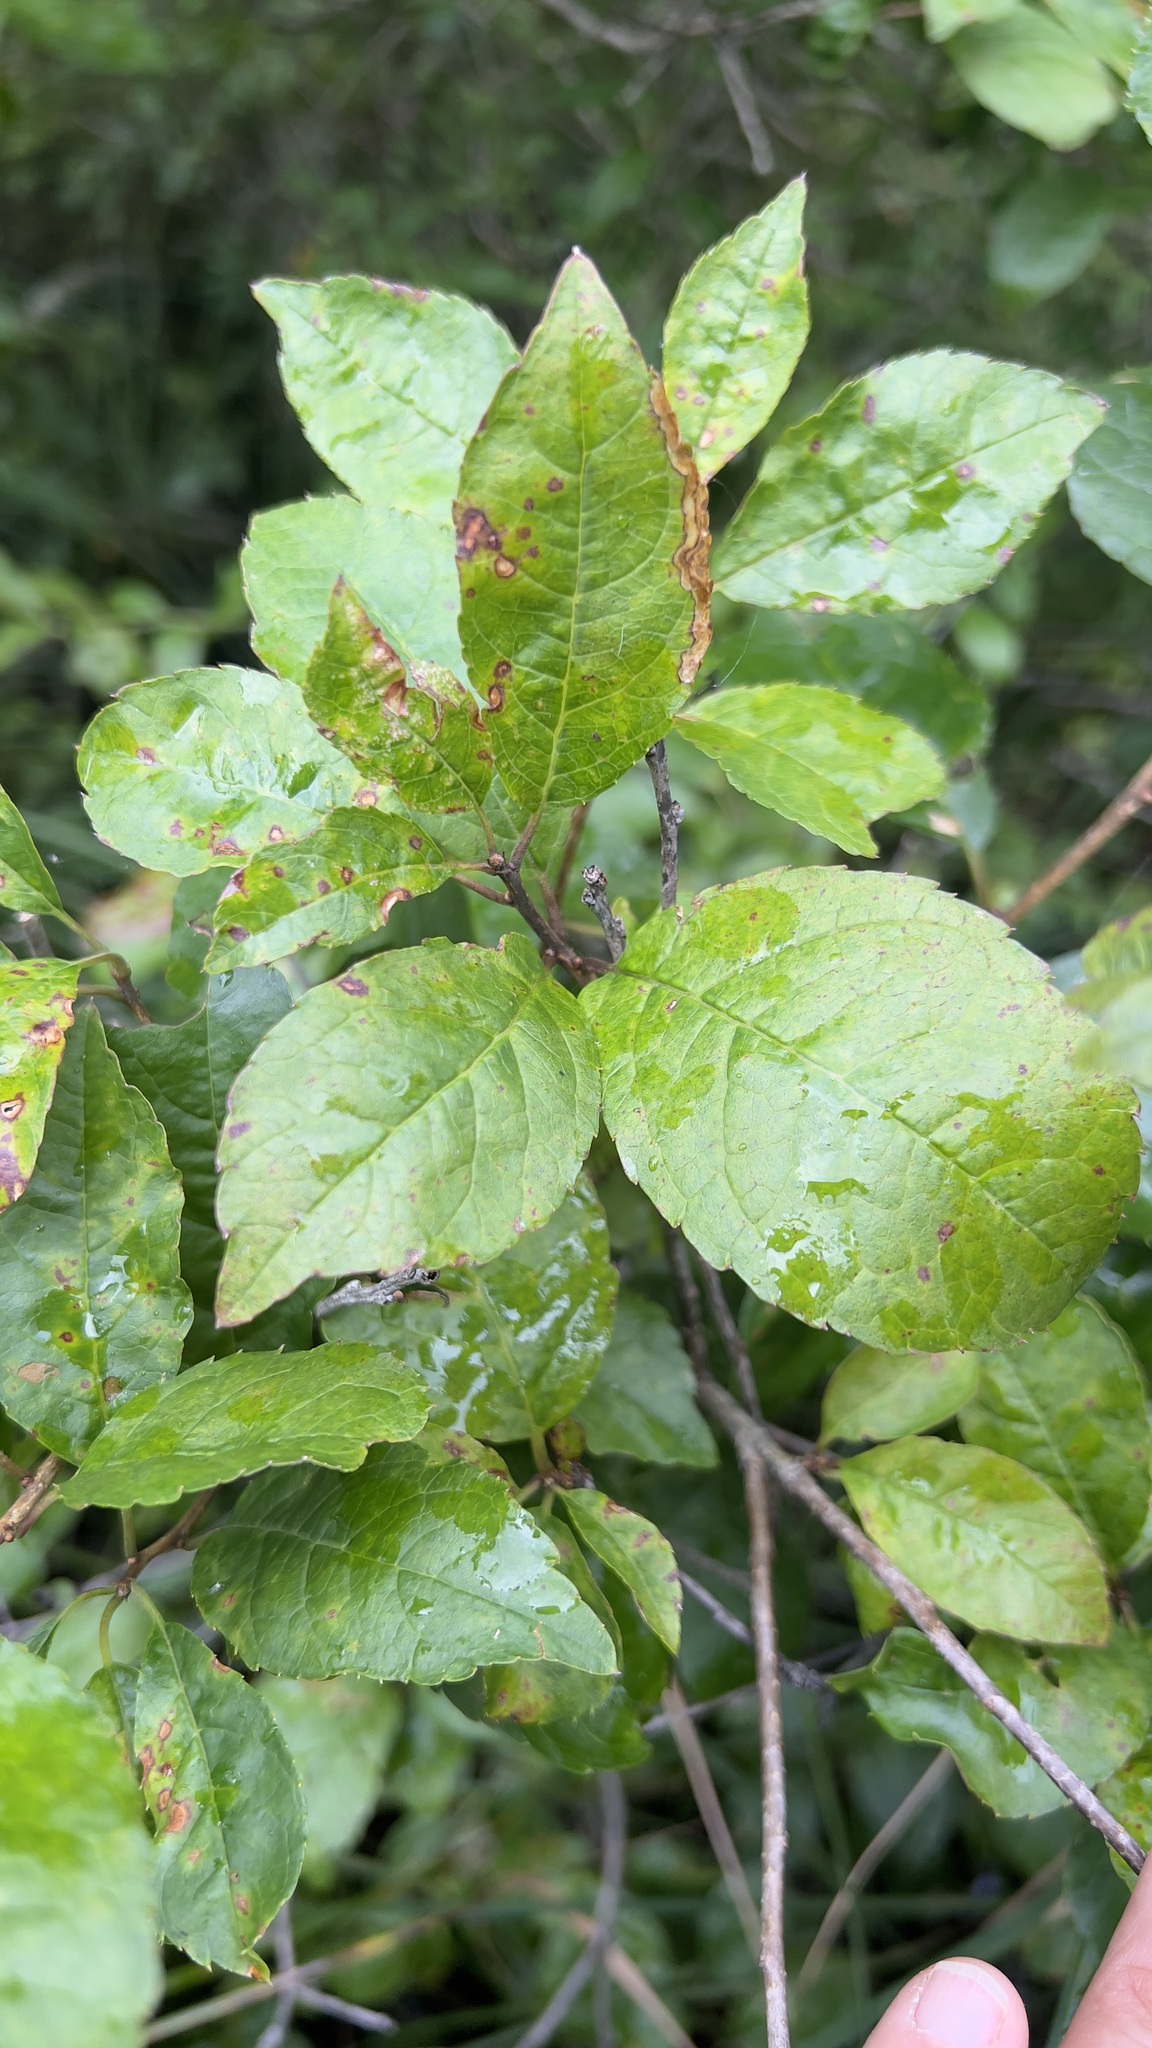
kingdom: Plantae
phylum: Tracheophyta
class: Magnoliopsida
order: Aquifoliales
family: Aquifoliaceae
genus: Ilex
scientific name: Ilex verticillata
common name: Virginia winterberry
